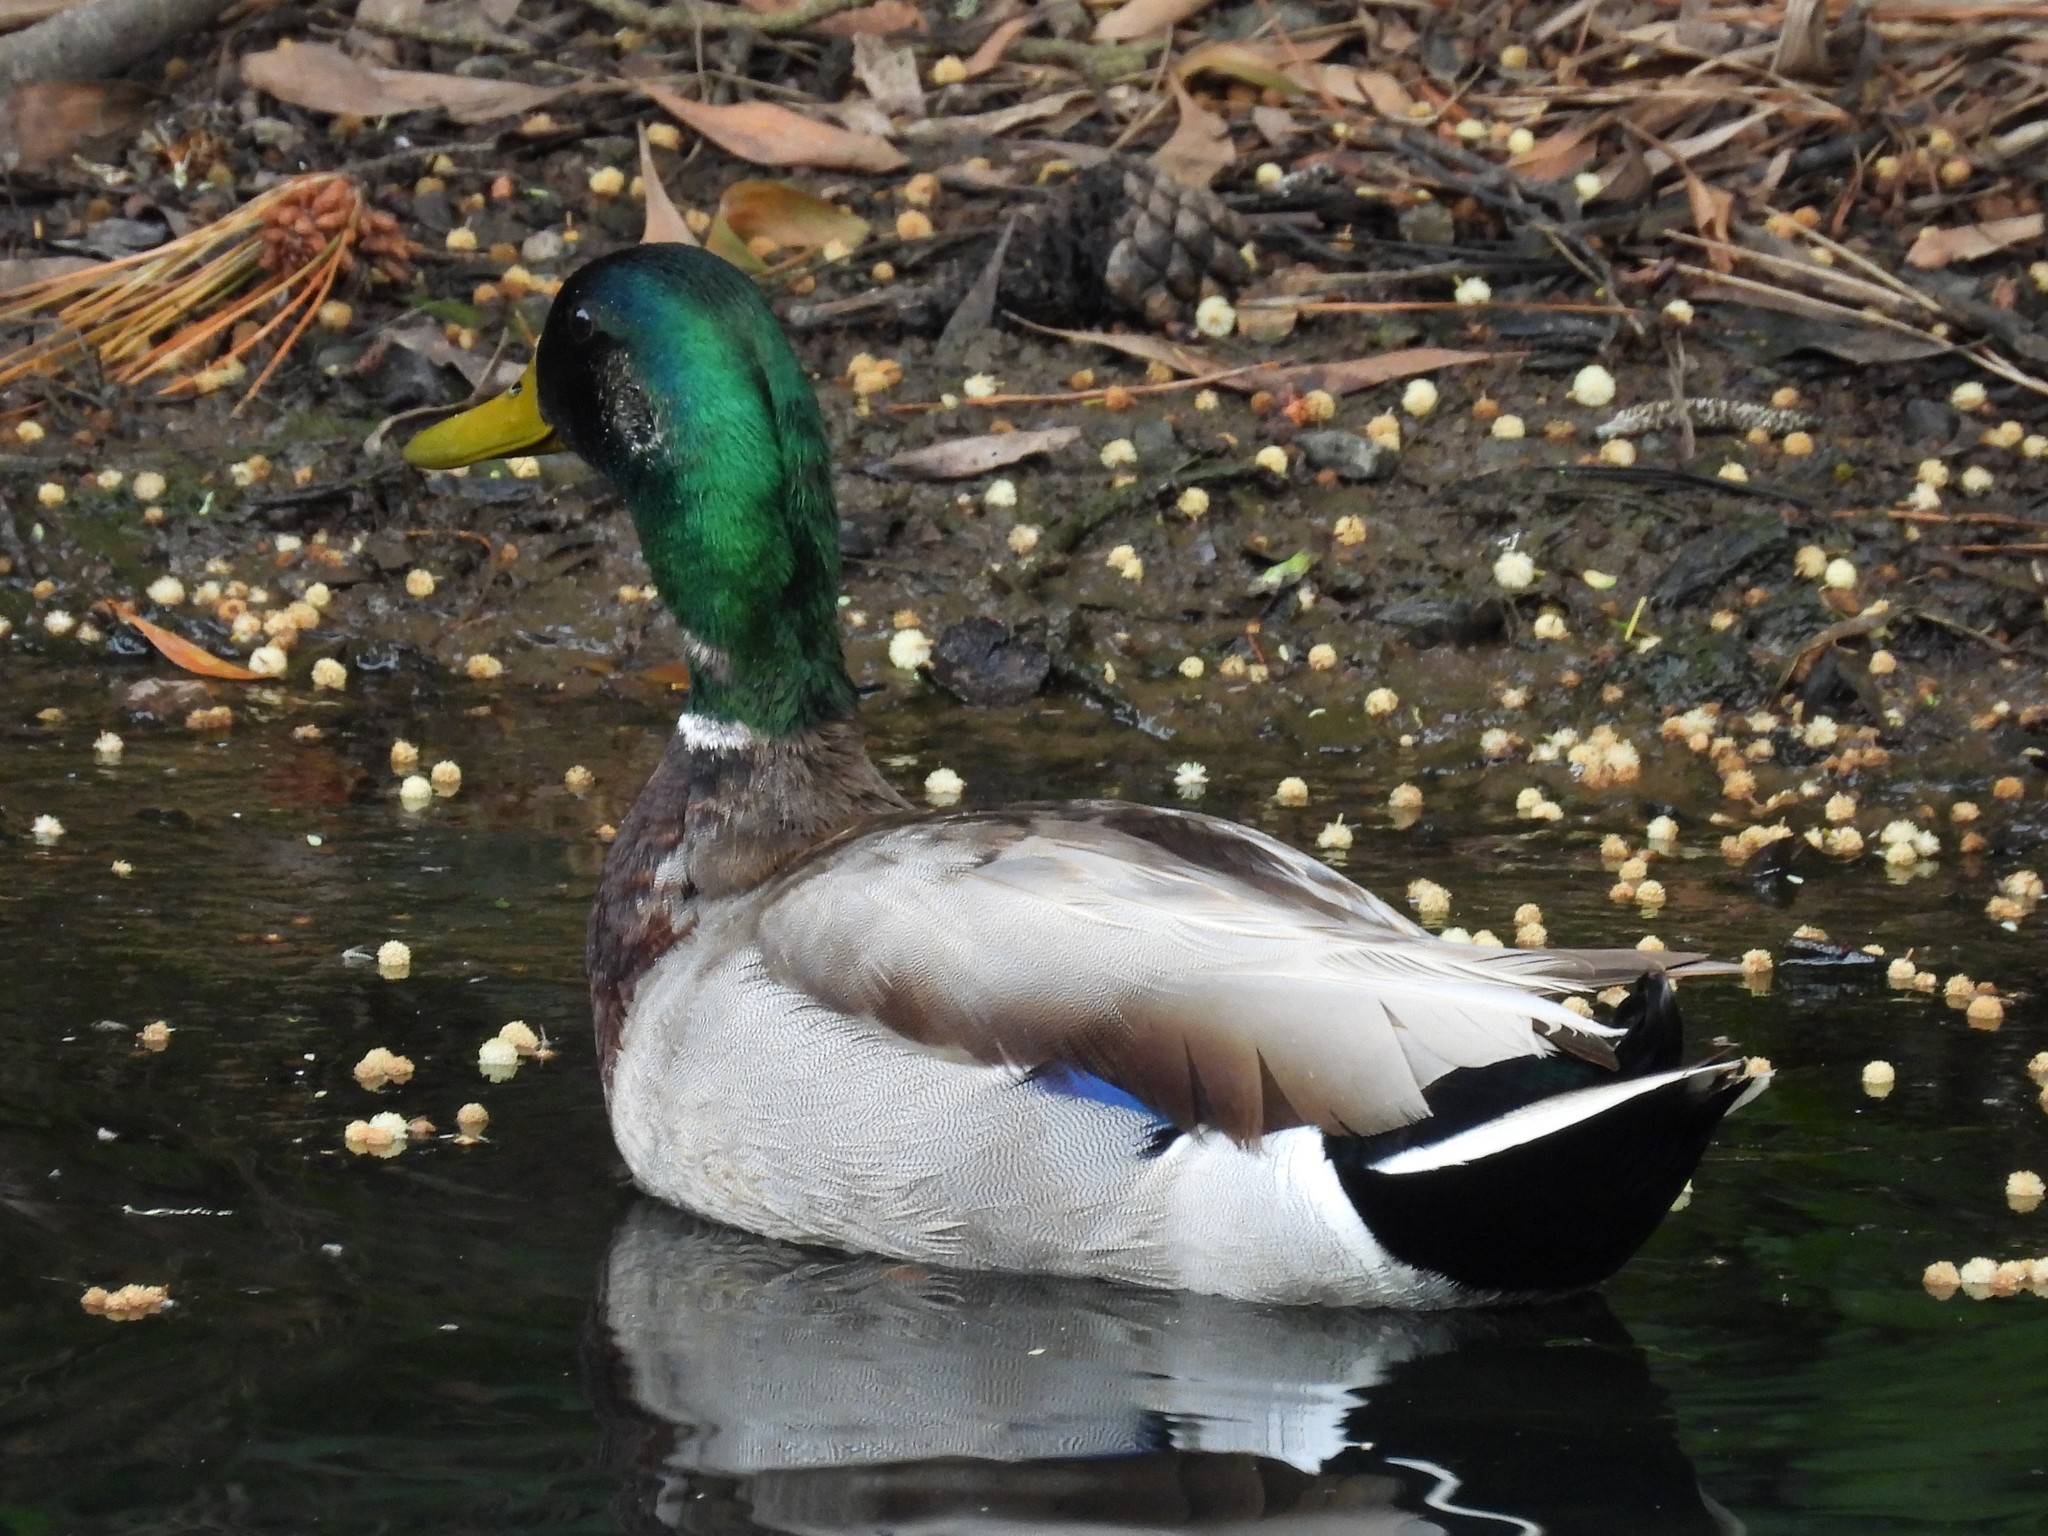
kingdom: Animalia
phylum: Chordata
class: Aves
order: Anseriformes
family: Anatidae
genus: Anas
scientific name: Anas platyrhynchos
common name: Mallard
